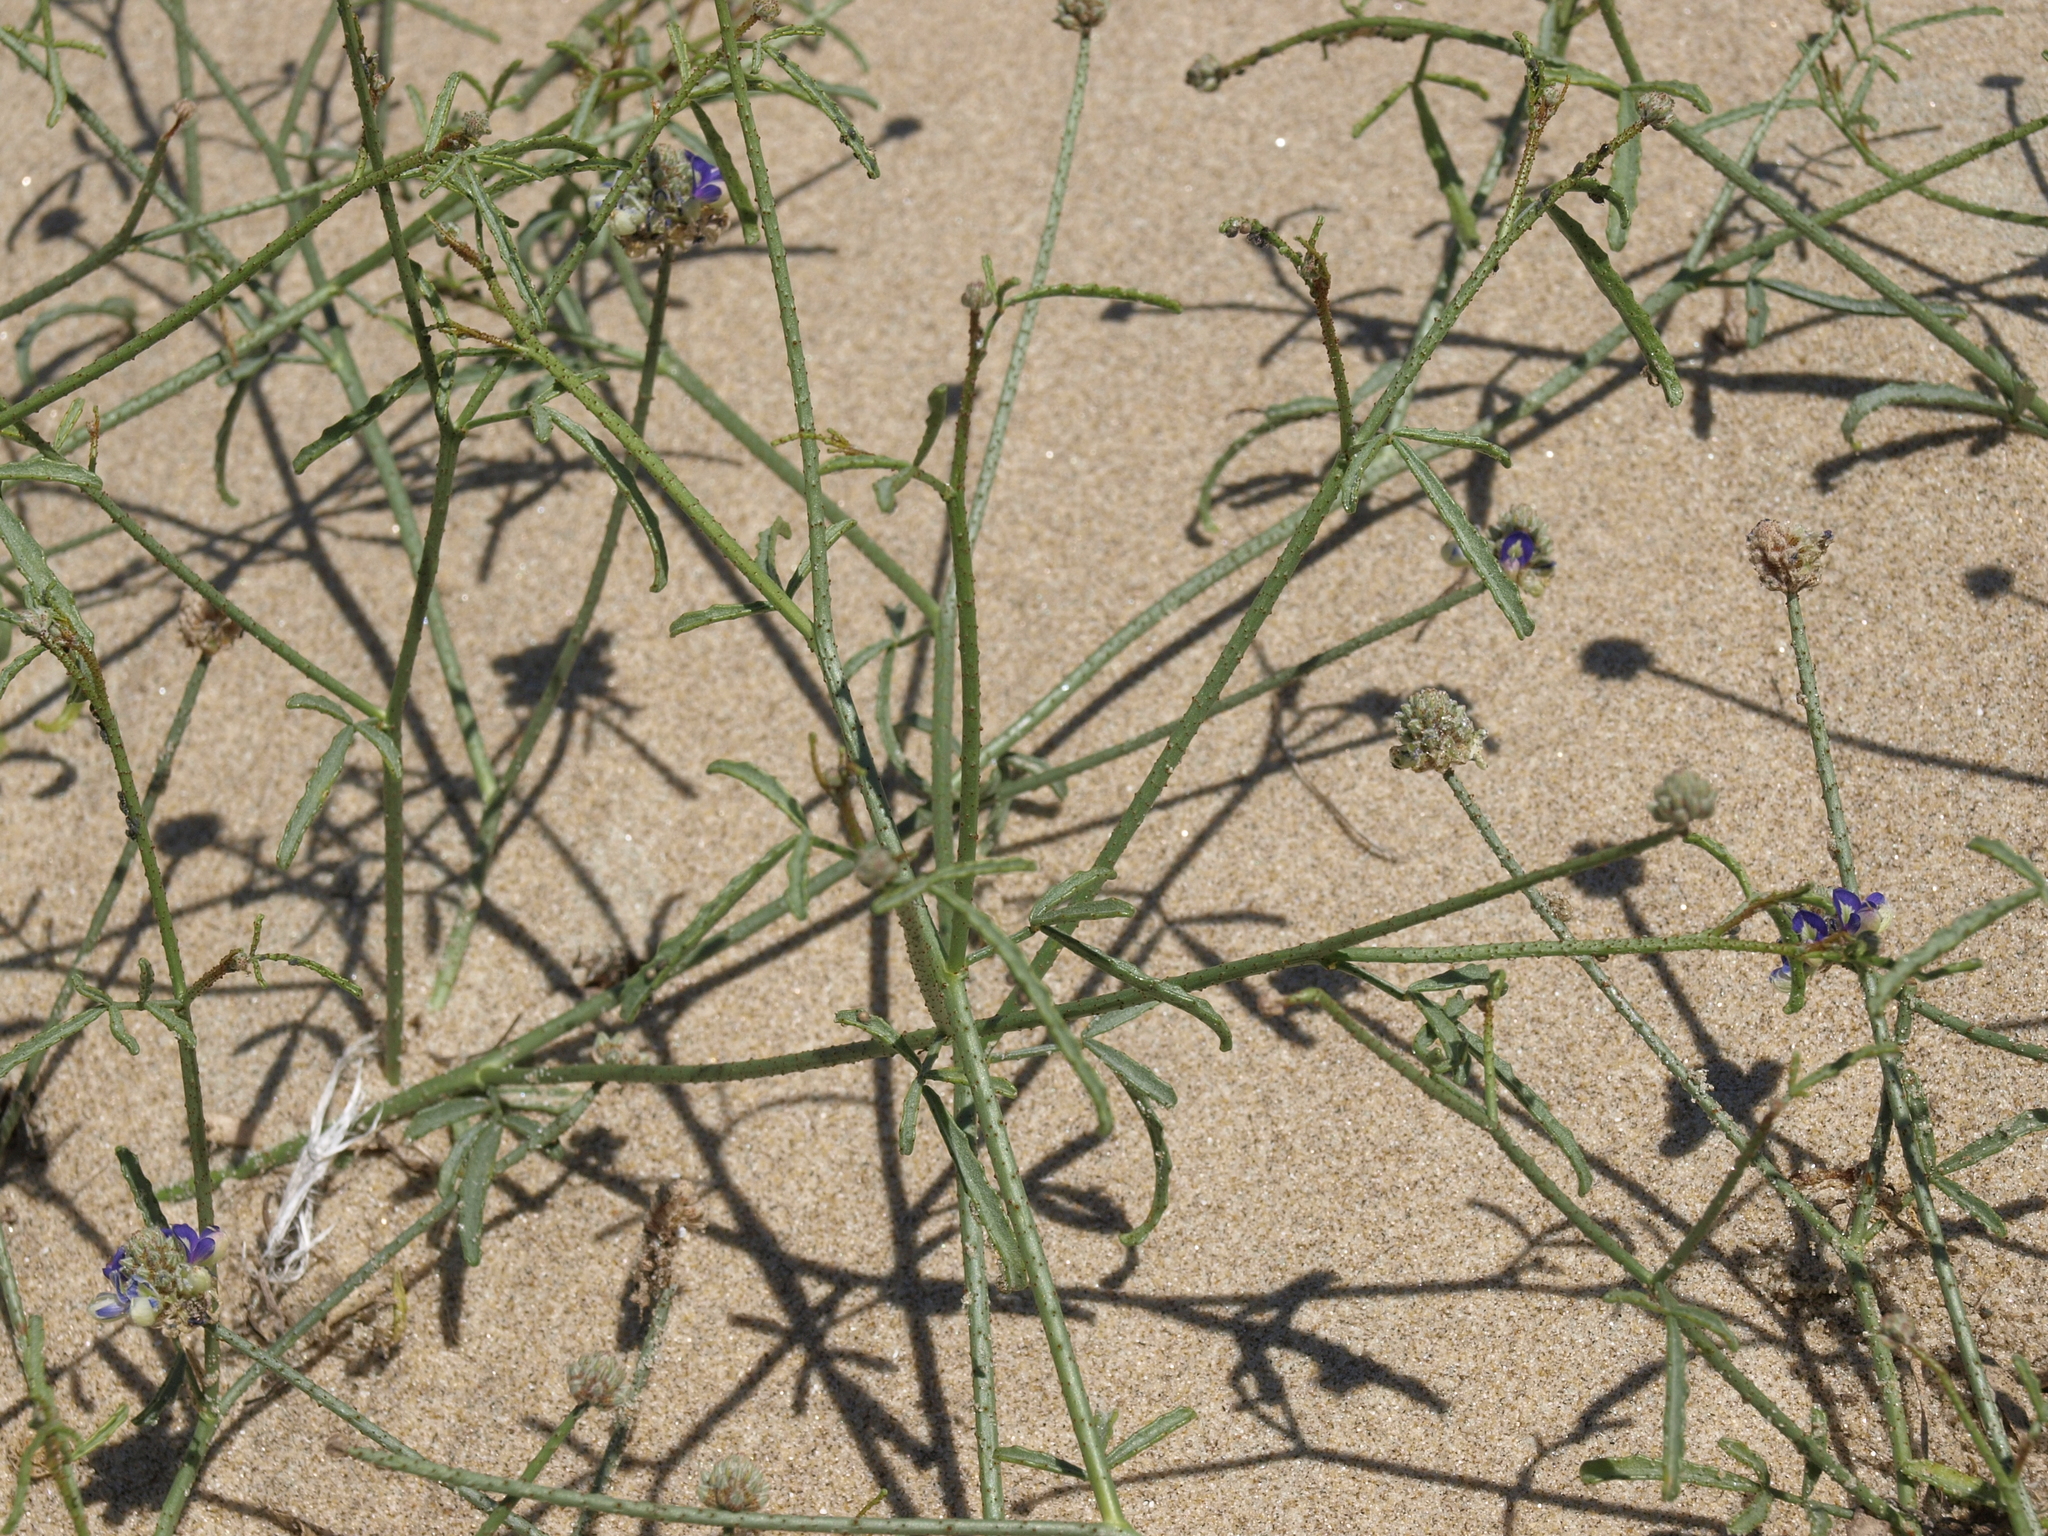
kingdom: Plantae
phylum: Tracheophyta
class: Magnoliopsida
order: Fabales
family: Fabaceae
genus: Psorothamnus
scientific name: Psorothamnus emoryi
